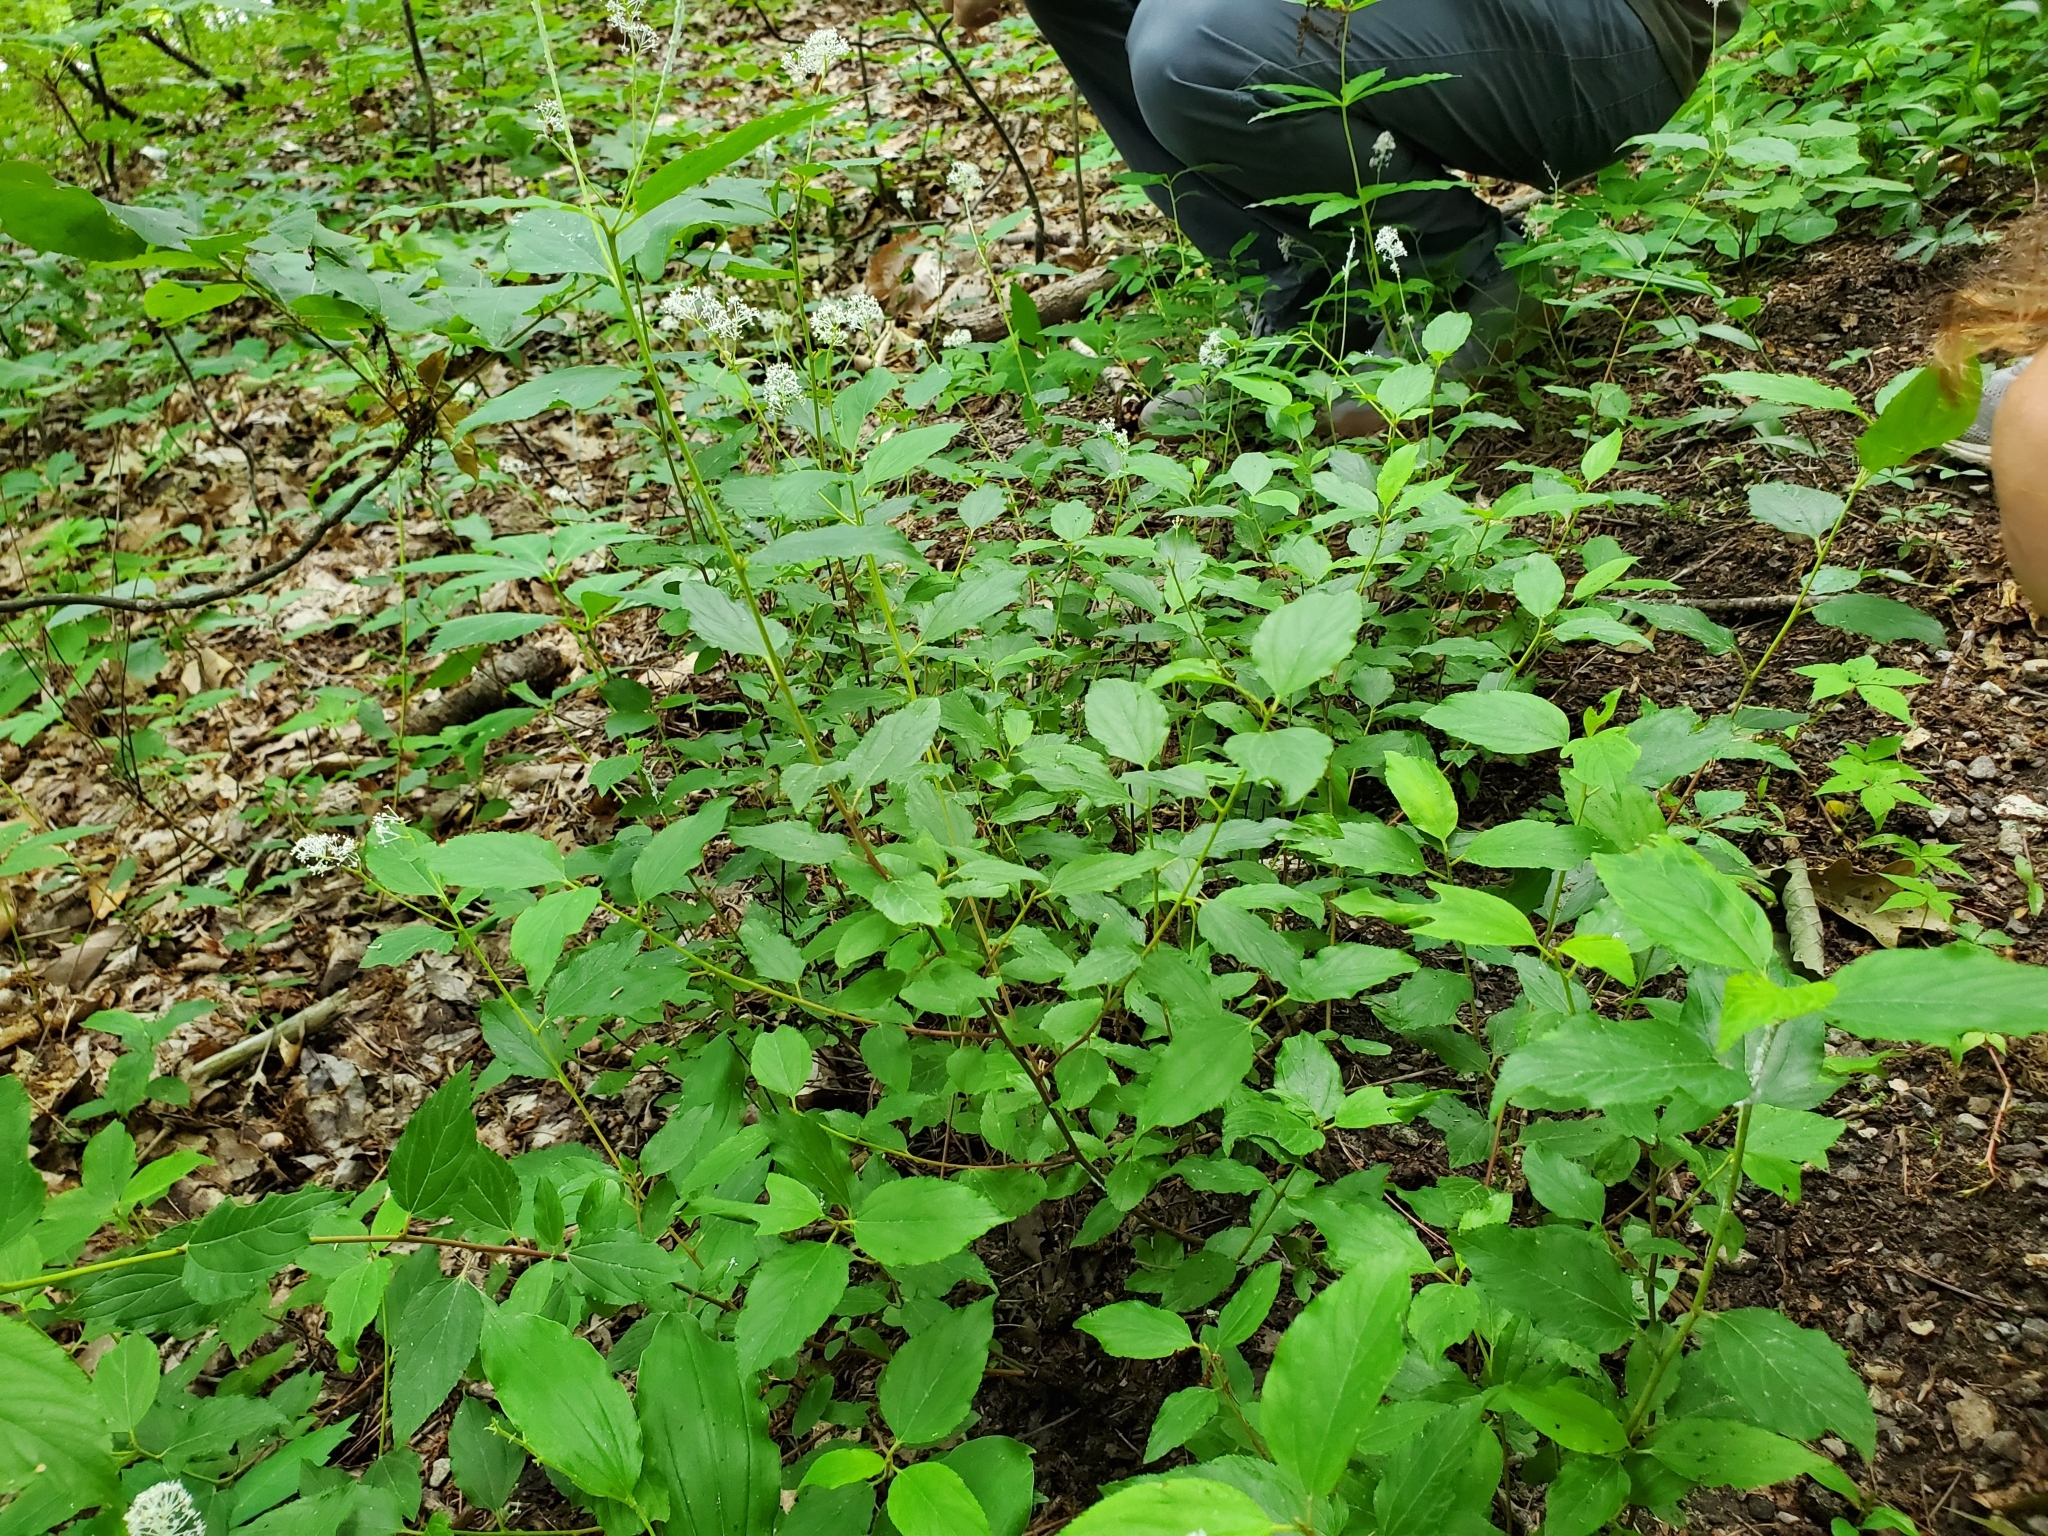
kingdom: Plantae
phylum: Tracheophyta
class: Magnoliopsida
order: Rosales
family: Rhamnaceae
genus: Ceanothus
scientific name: Ceanothus americanus
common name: Redroot
